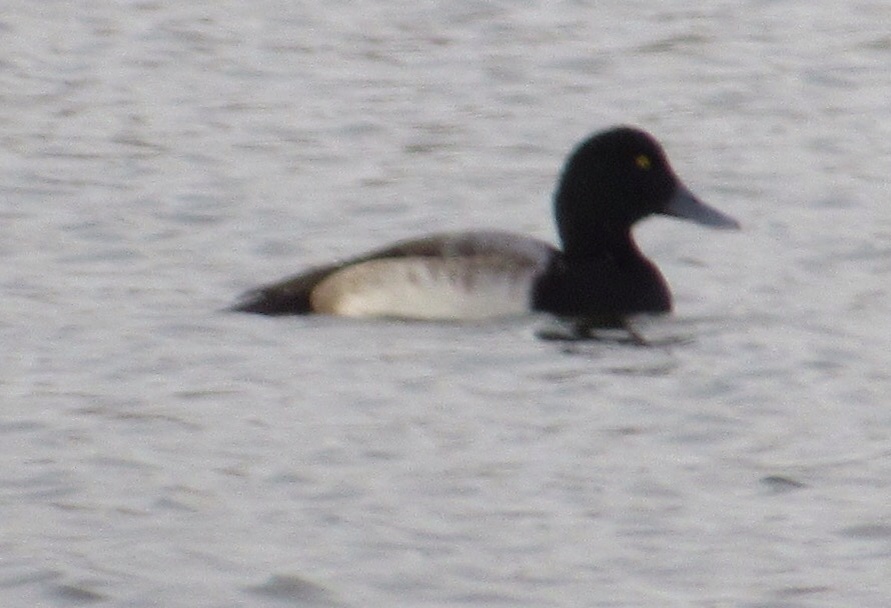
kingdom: Animalia
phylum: Chordata
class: Aves
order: Anseriformes
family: Anatidae
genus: Aythya
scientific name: Aythya marila
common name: Greater scaup
